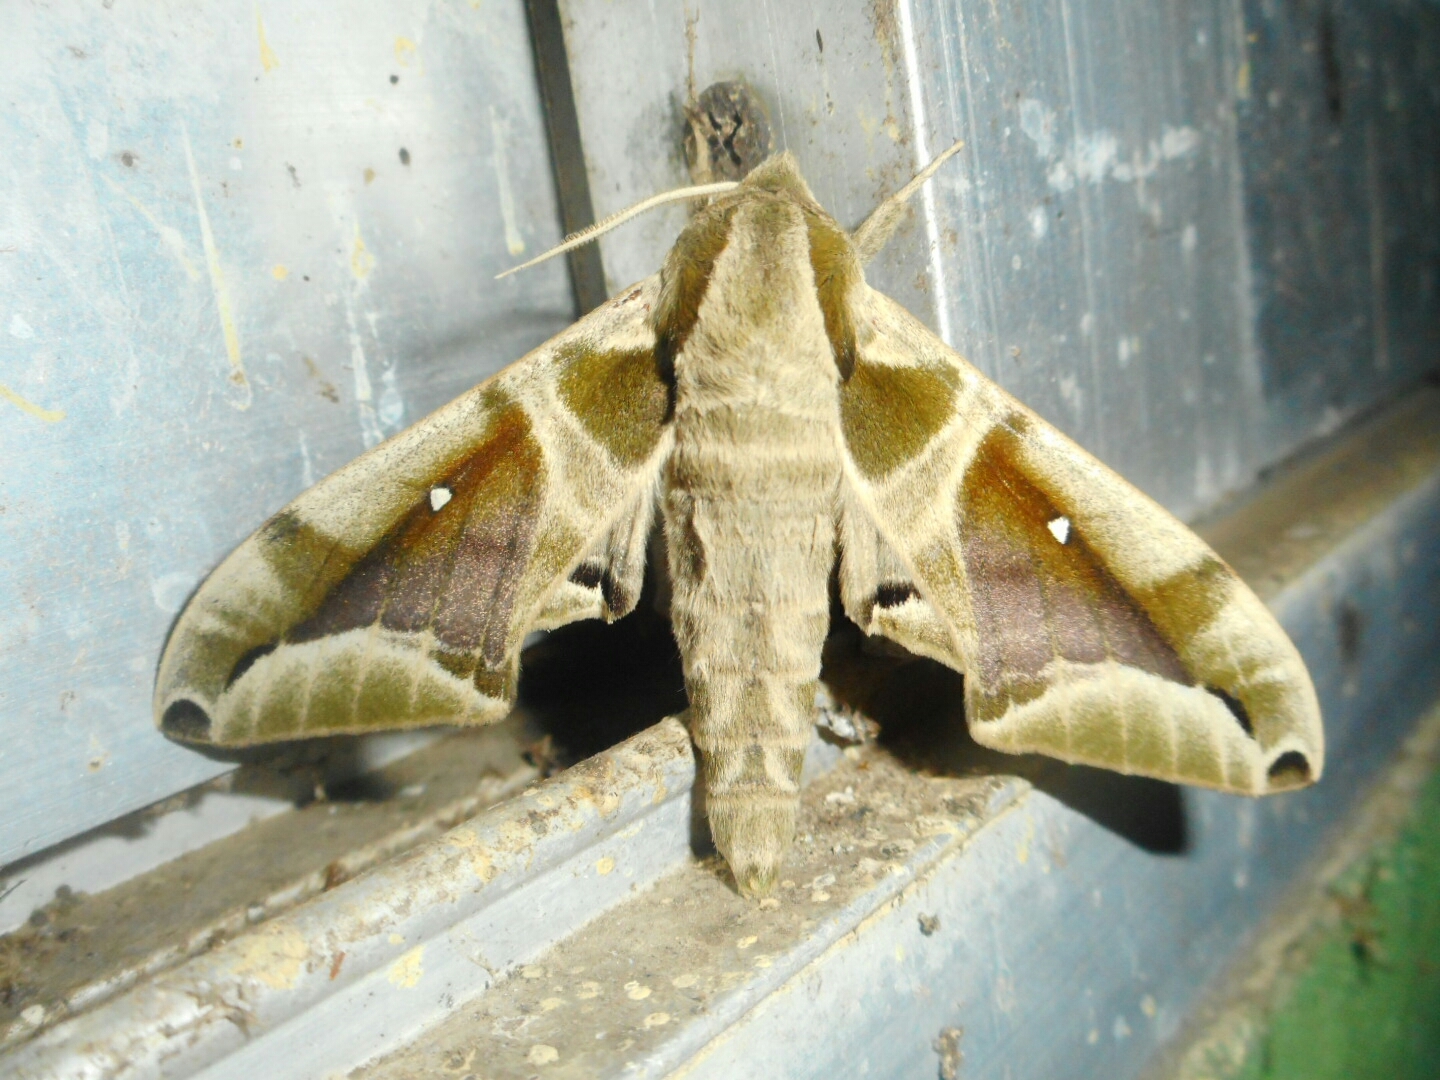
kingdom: Animalia
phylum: Arthropoda
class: Insecta
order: Lepidoptera
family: Sphingidae
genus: Parum
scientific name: Parum colligata
